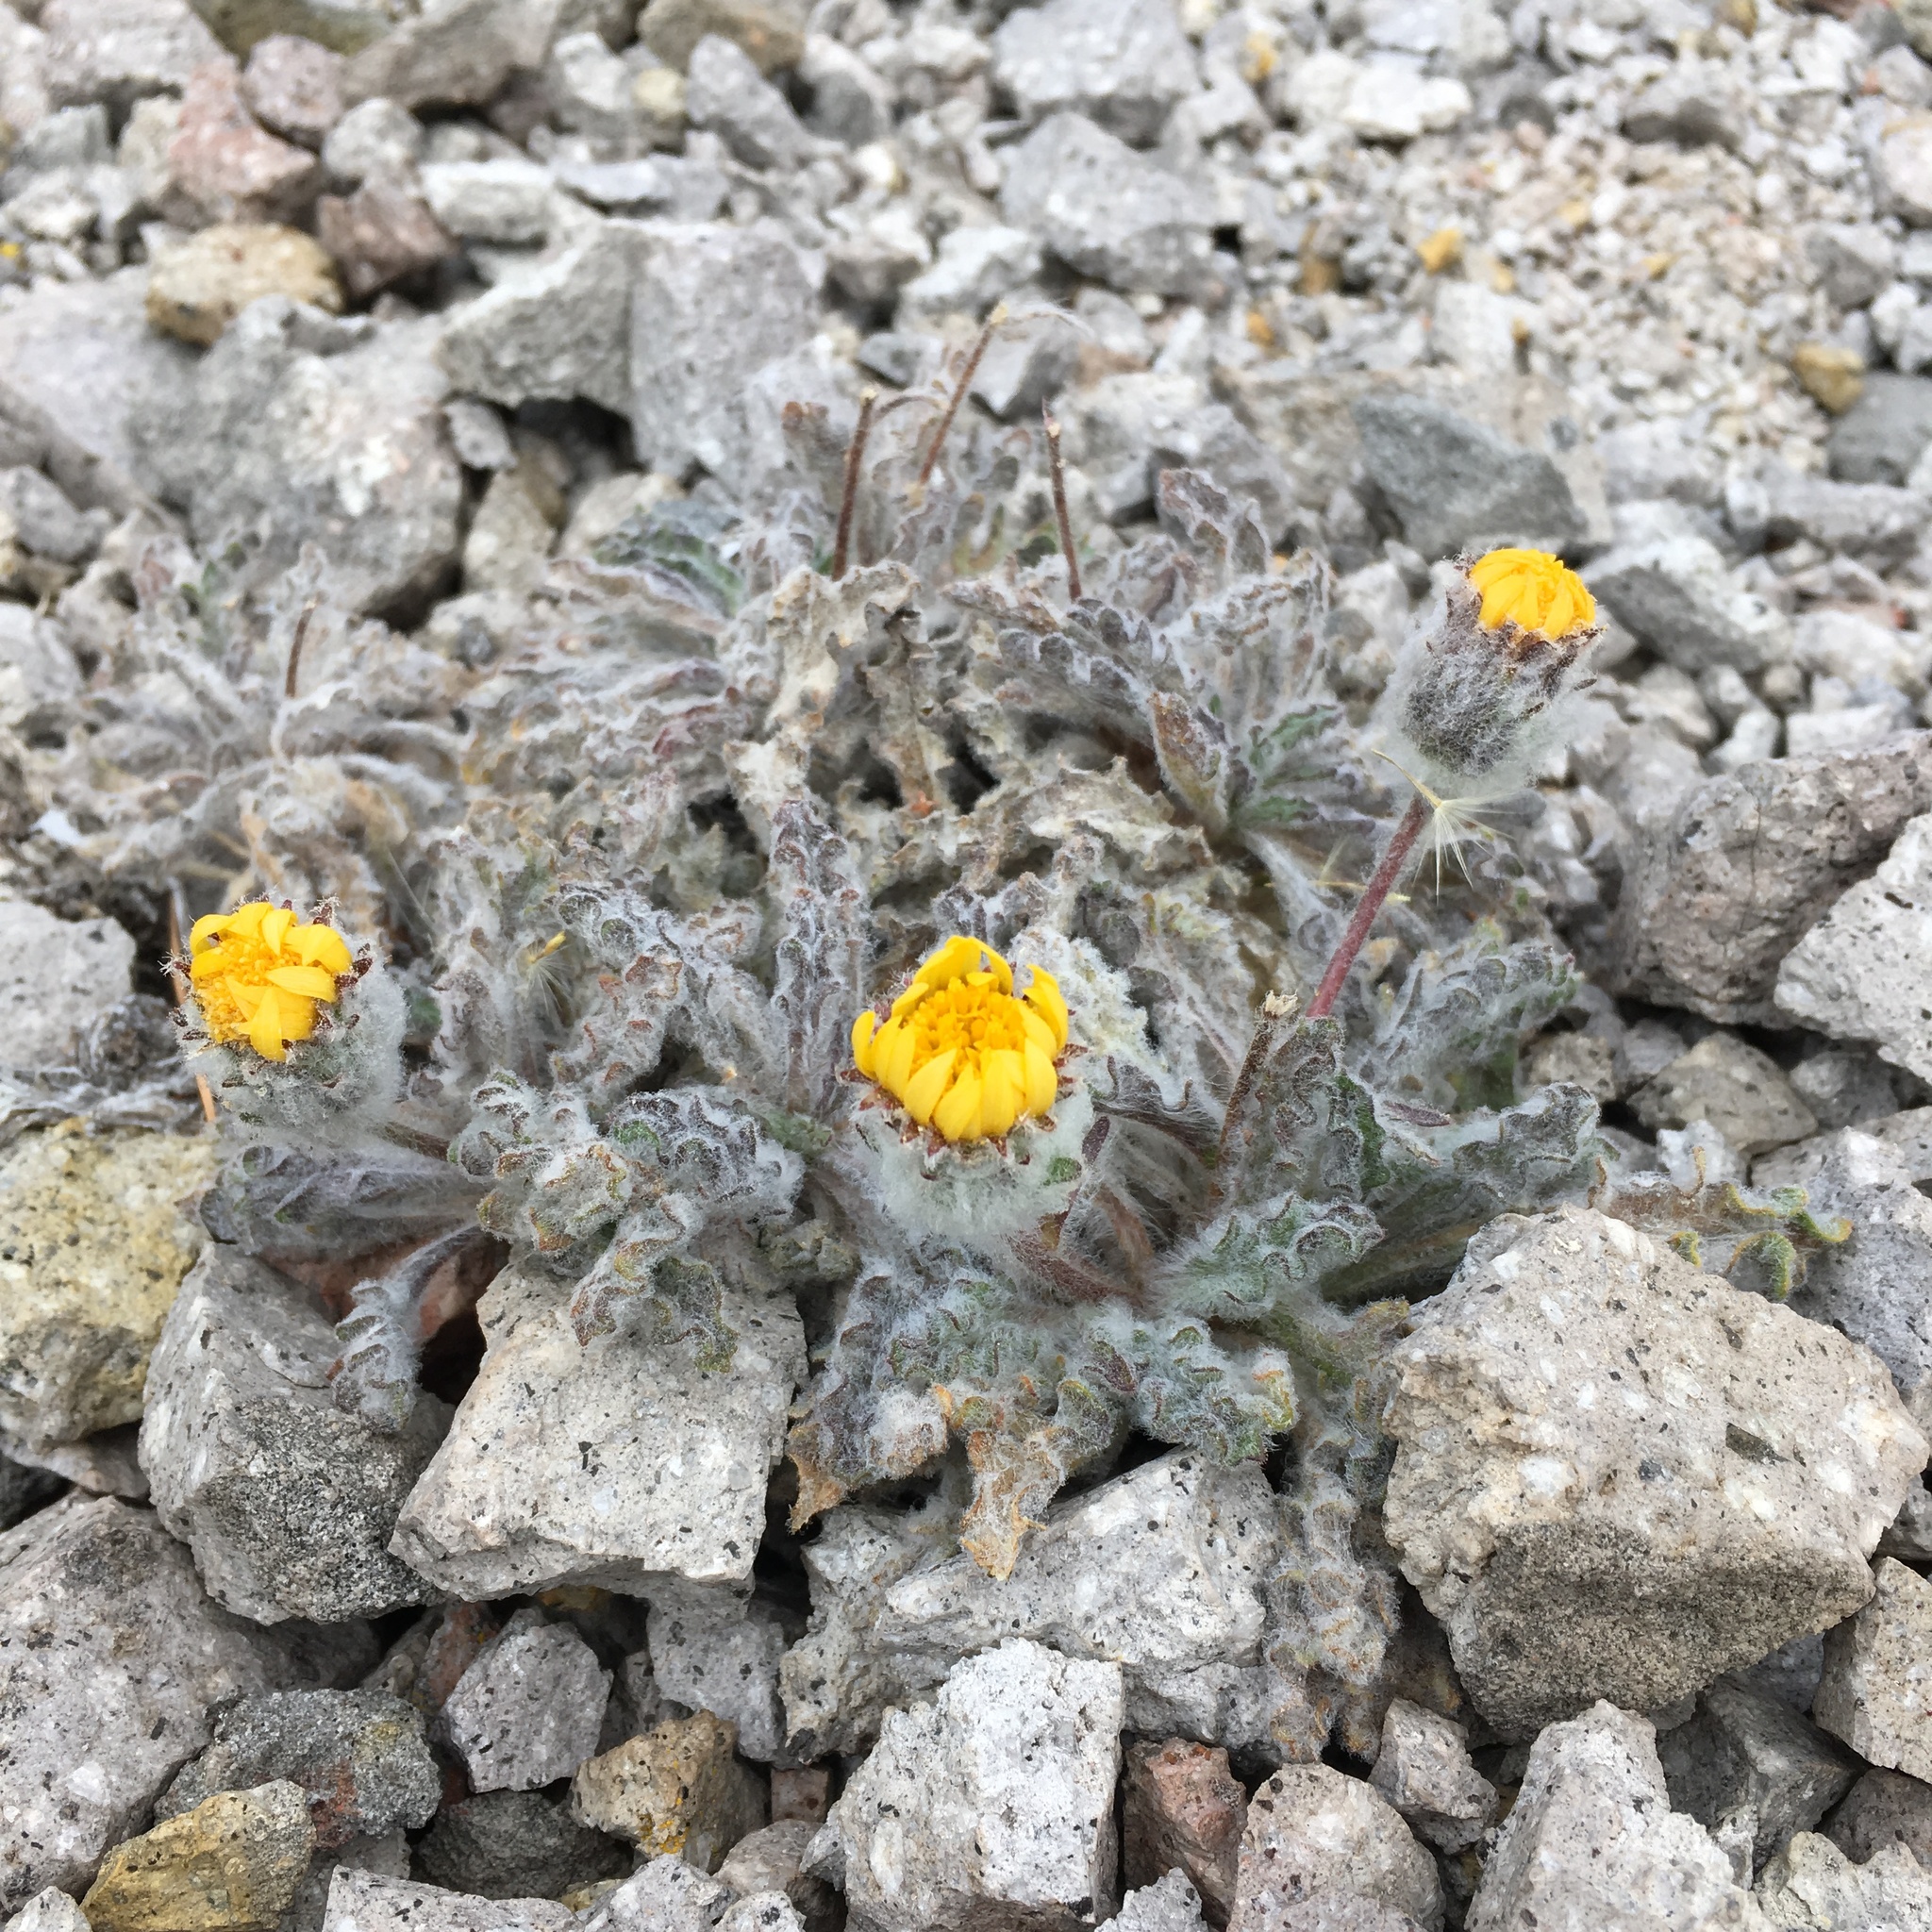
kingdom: Plantae
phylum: Tracheophyta
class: Magnoliopsida
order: Asterales
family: Asteraceae
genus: Hulsea
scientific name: Hulsea nana
